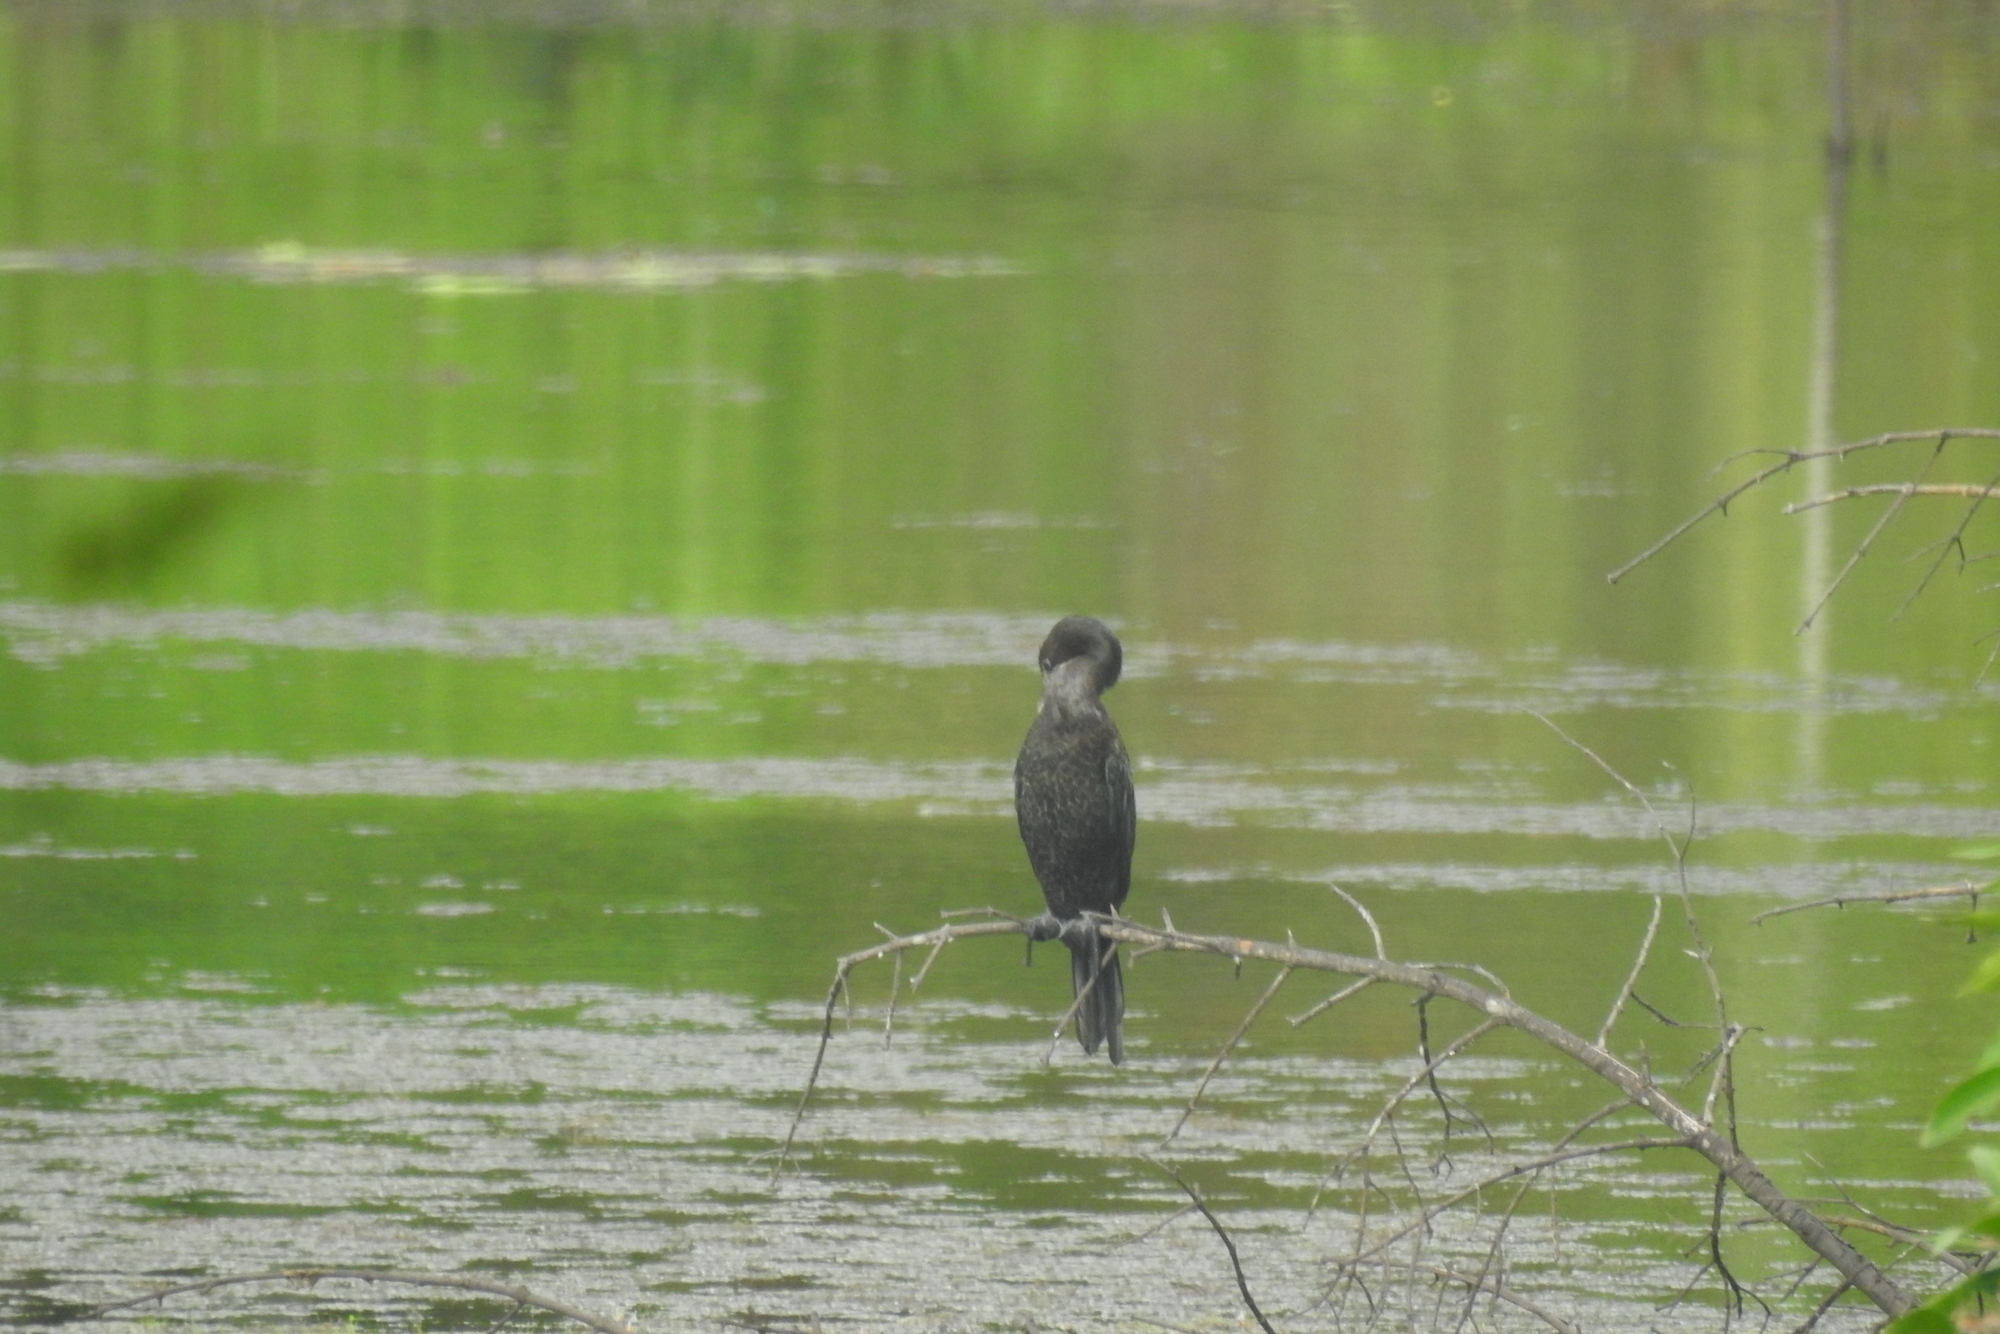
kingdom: Animalia
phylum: Chordata
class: Aves
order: Suliformes
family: Phalacrocoracidae
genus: Microcarbo
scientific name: Microcarbo niger
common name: Little cormorant
